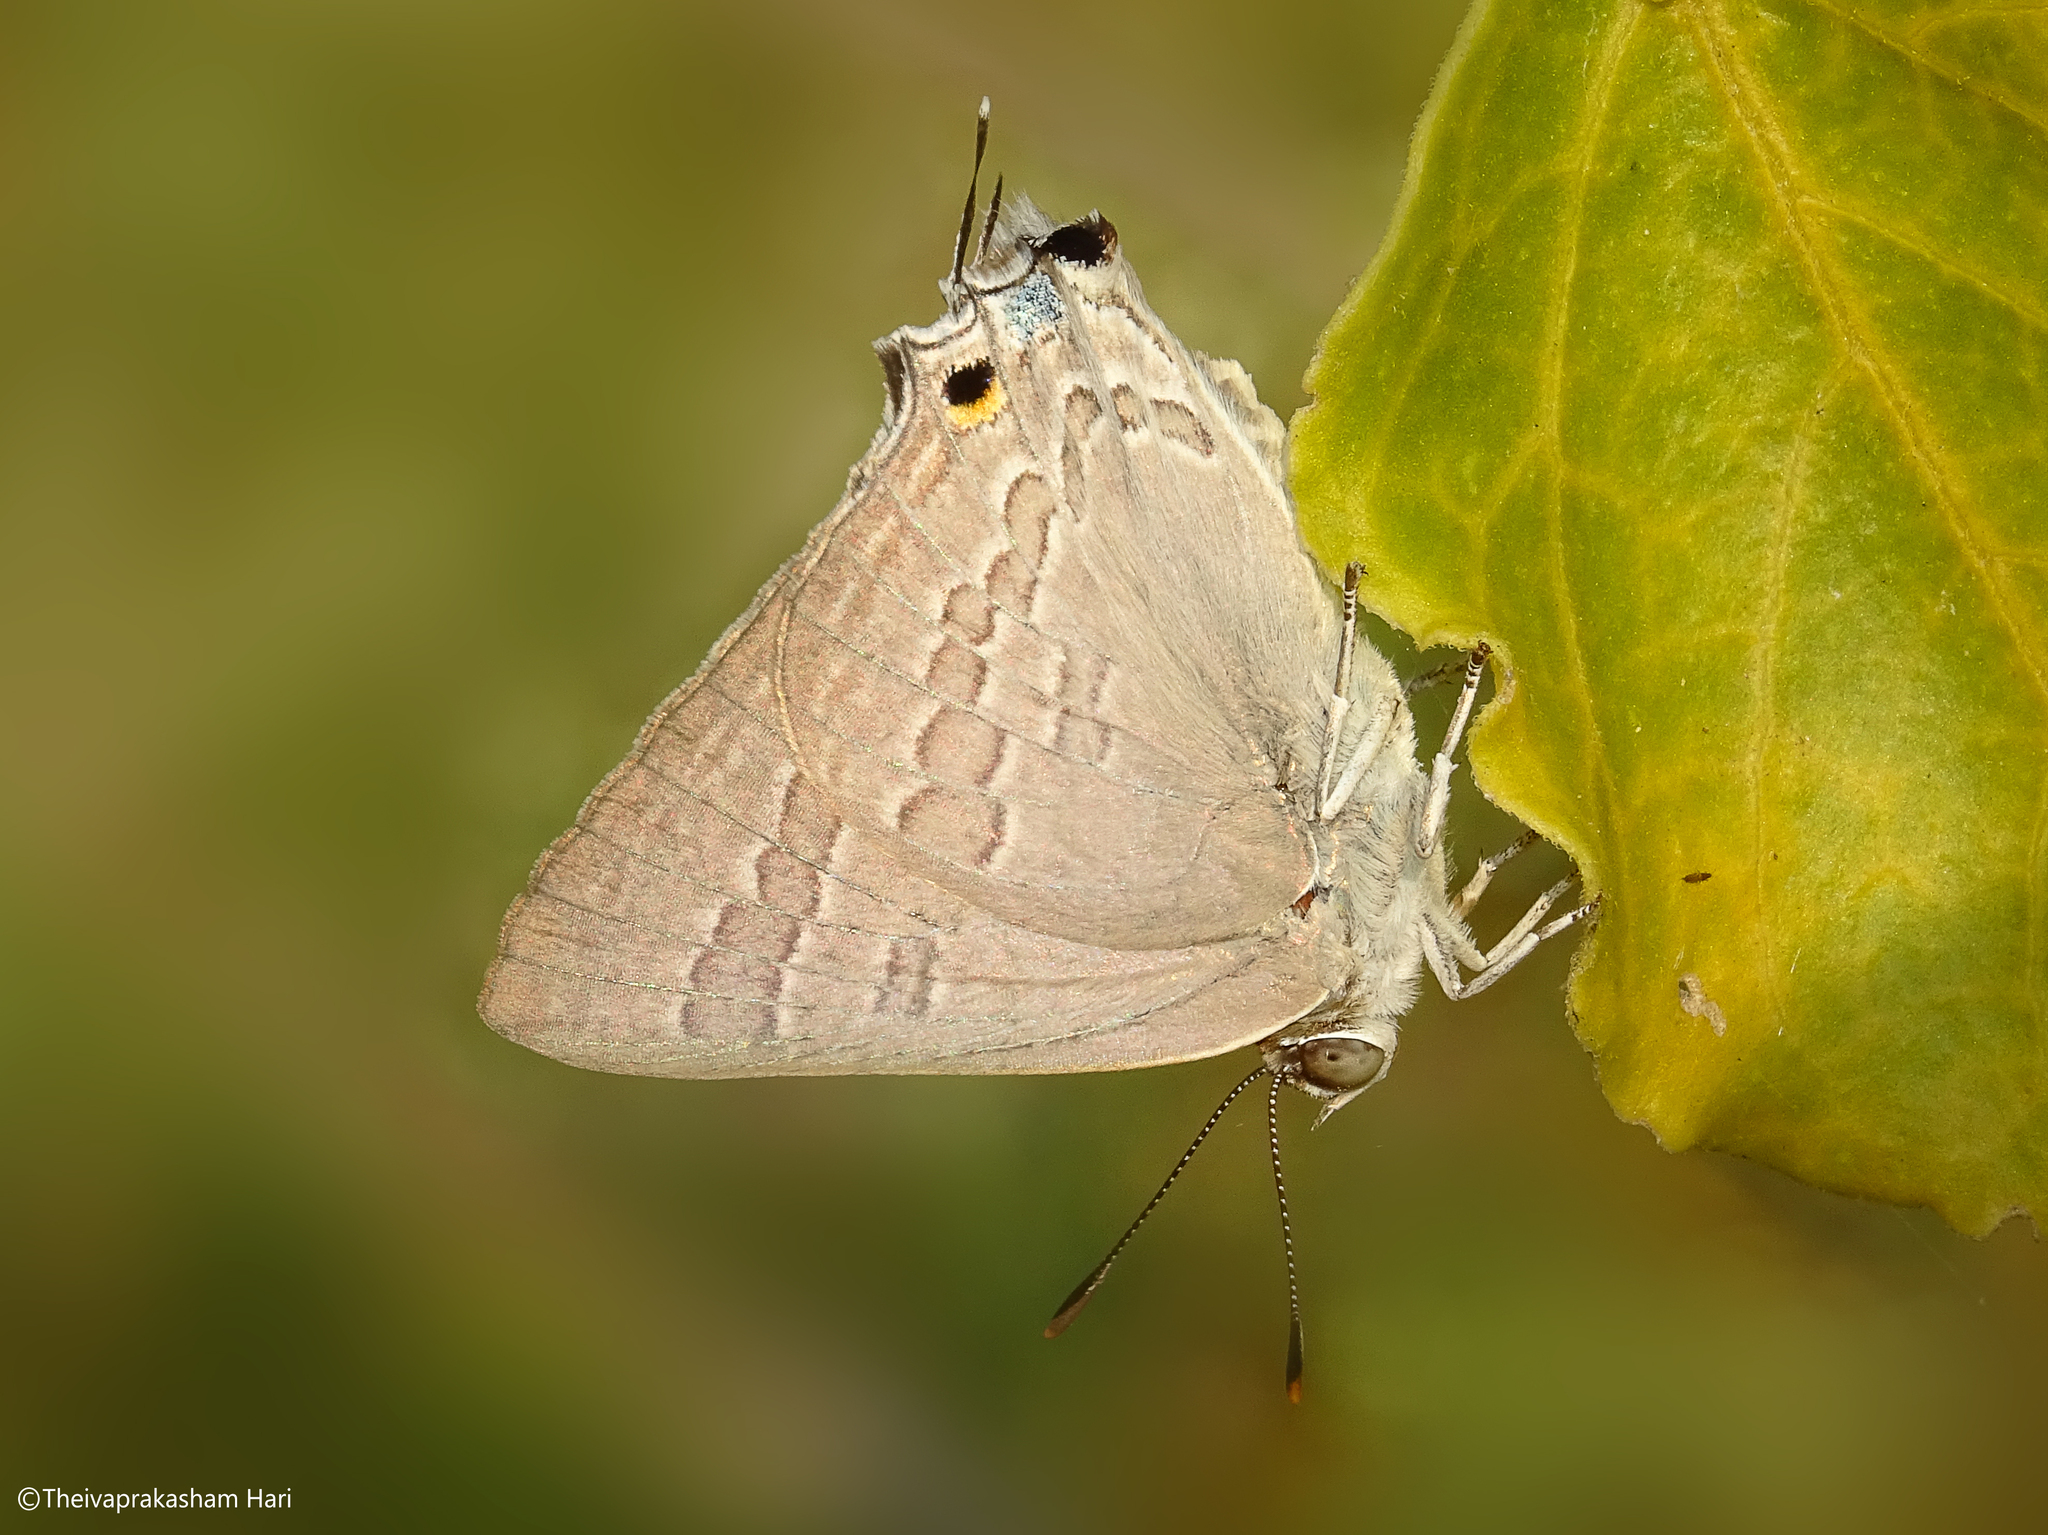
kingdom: Animalia
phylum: Arthropoda
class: Insecta
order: Lepidoptera
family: Lycaenidae
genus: Deudorix
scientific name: Deudorix
